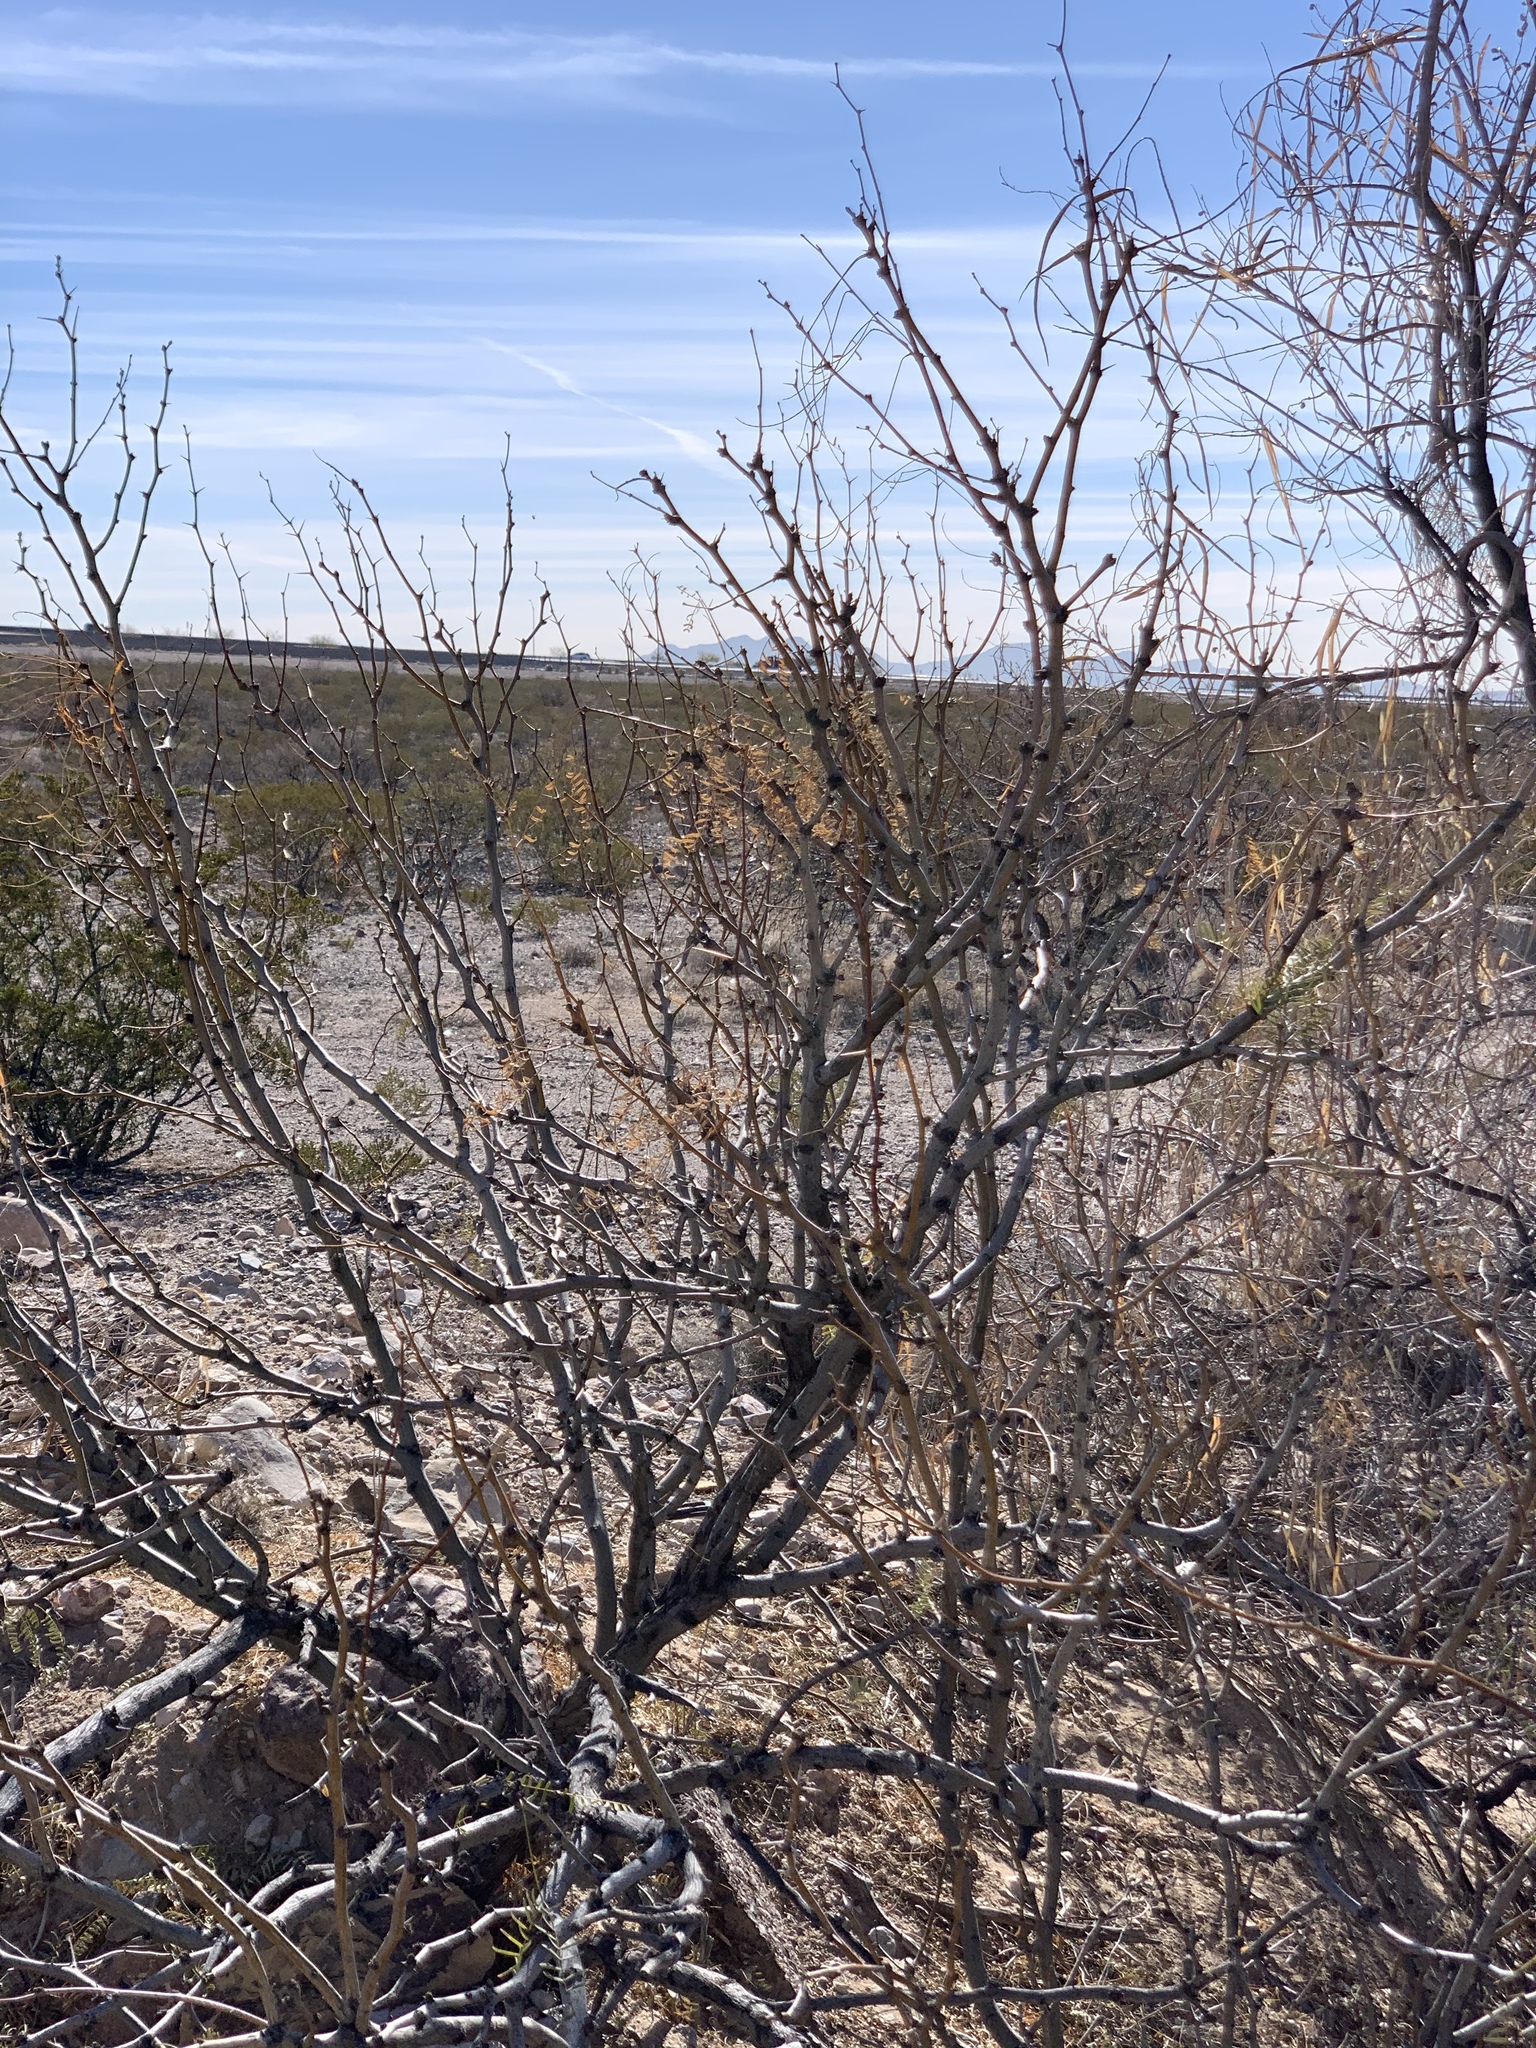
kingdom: Plantae
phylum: Tracheophyta
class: Magnoliopsida
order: Fabales
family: Fabaceae
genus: Prosopis
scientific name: Prosopis glandulosa
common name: Honey mesquite
